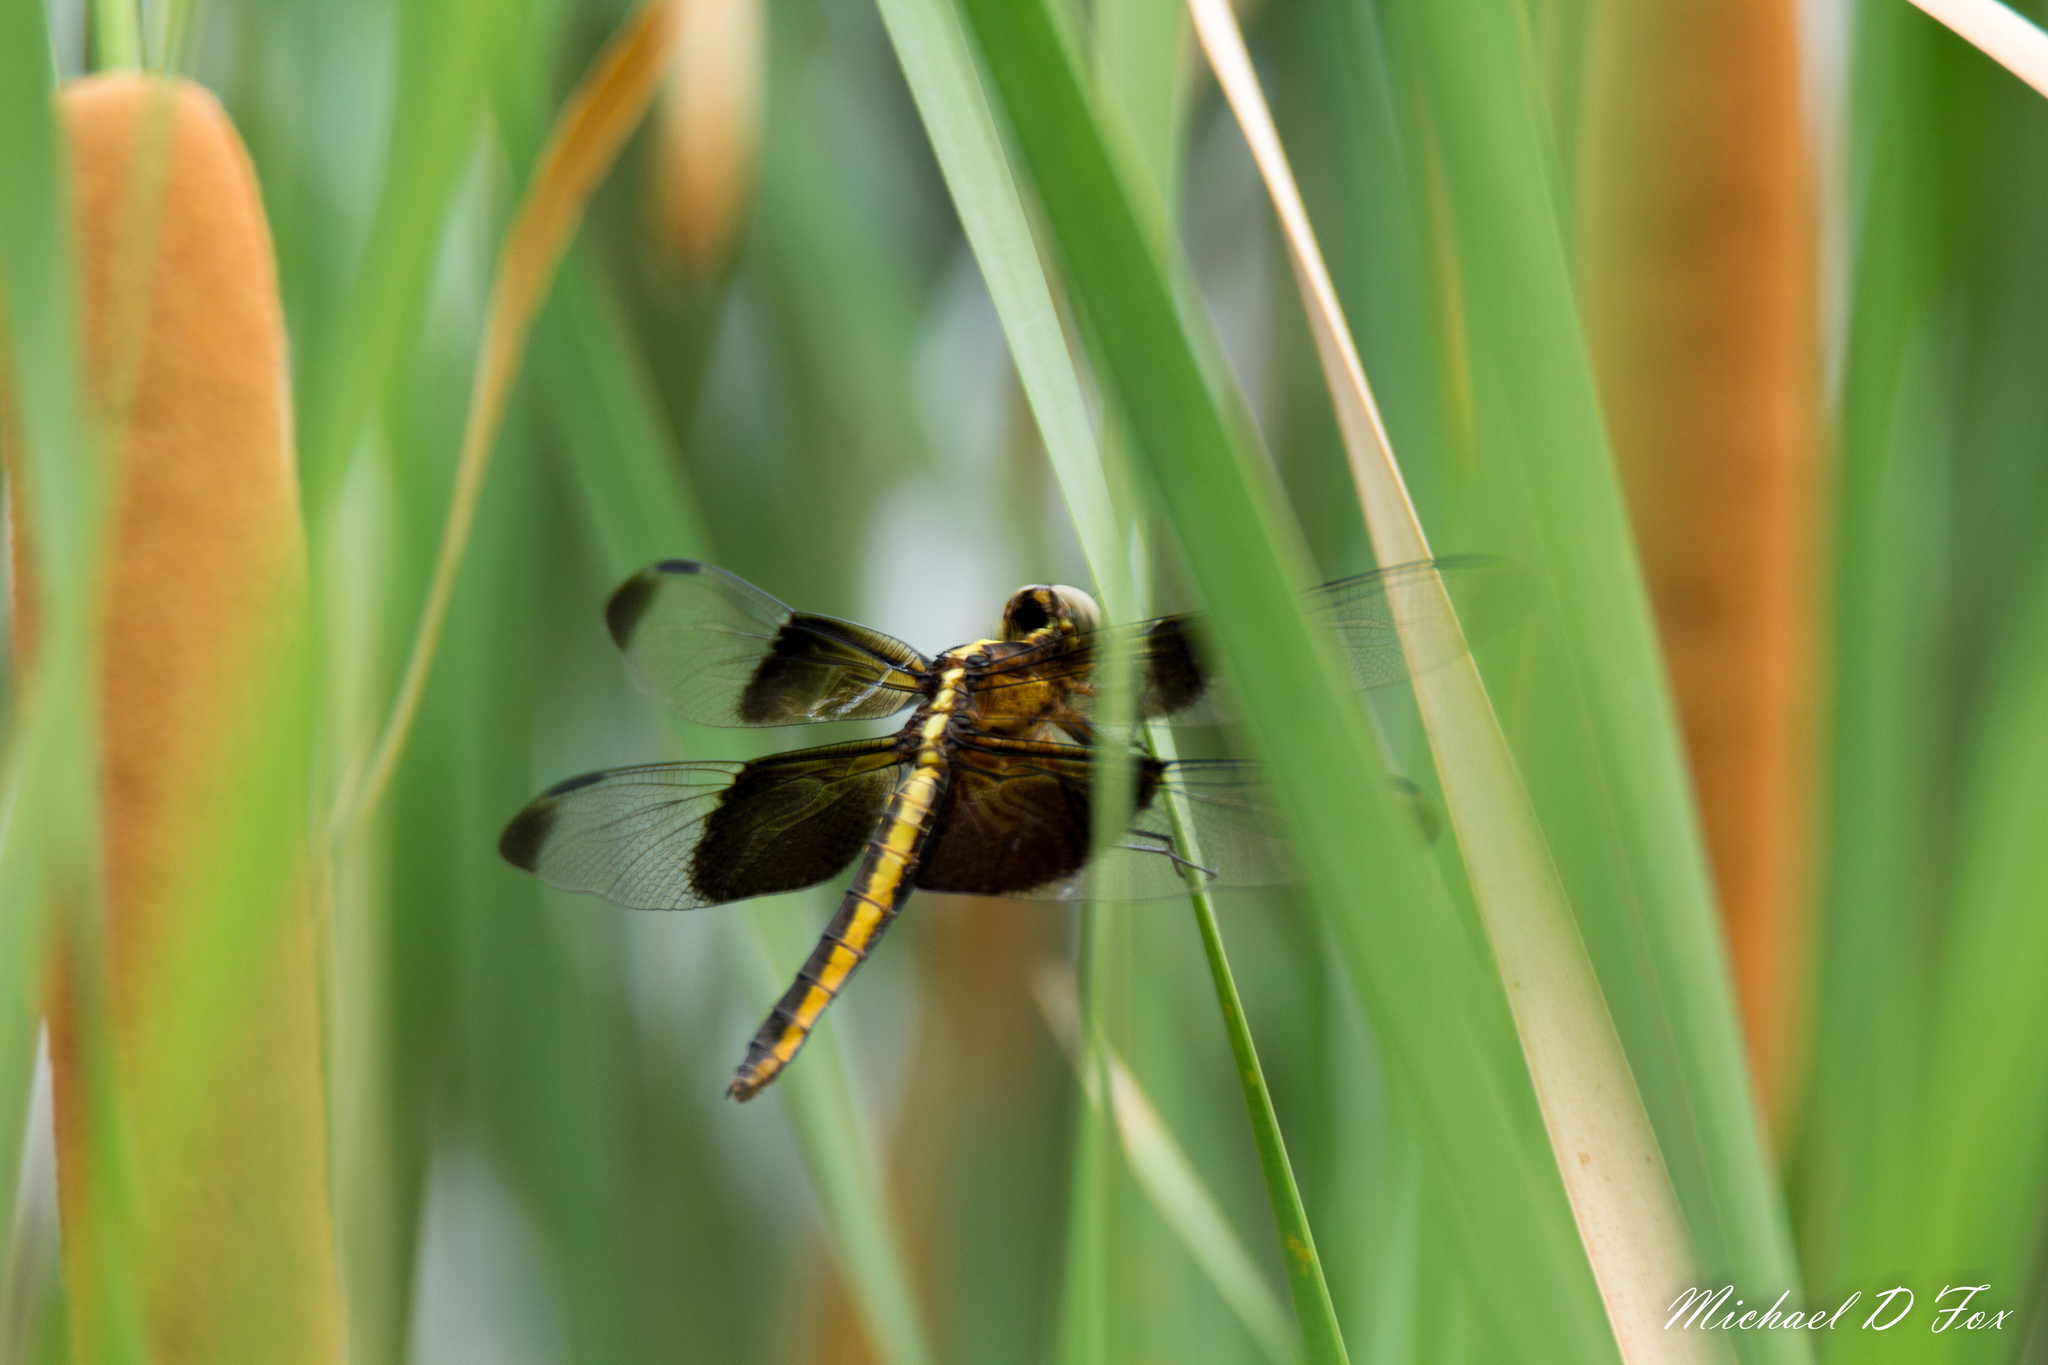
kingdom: Animalia
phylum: Arthropoda
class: Insecta
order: Odonata
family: Libellulidae
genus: Libellula
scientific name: Libellula luctuosa
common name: Widow skimmer
